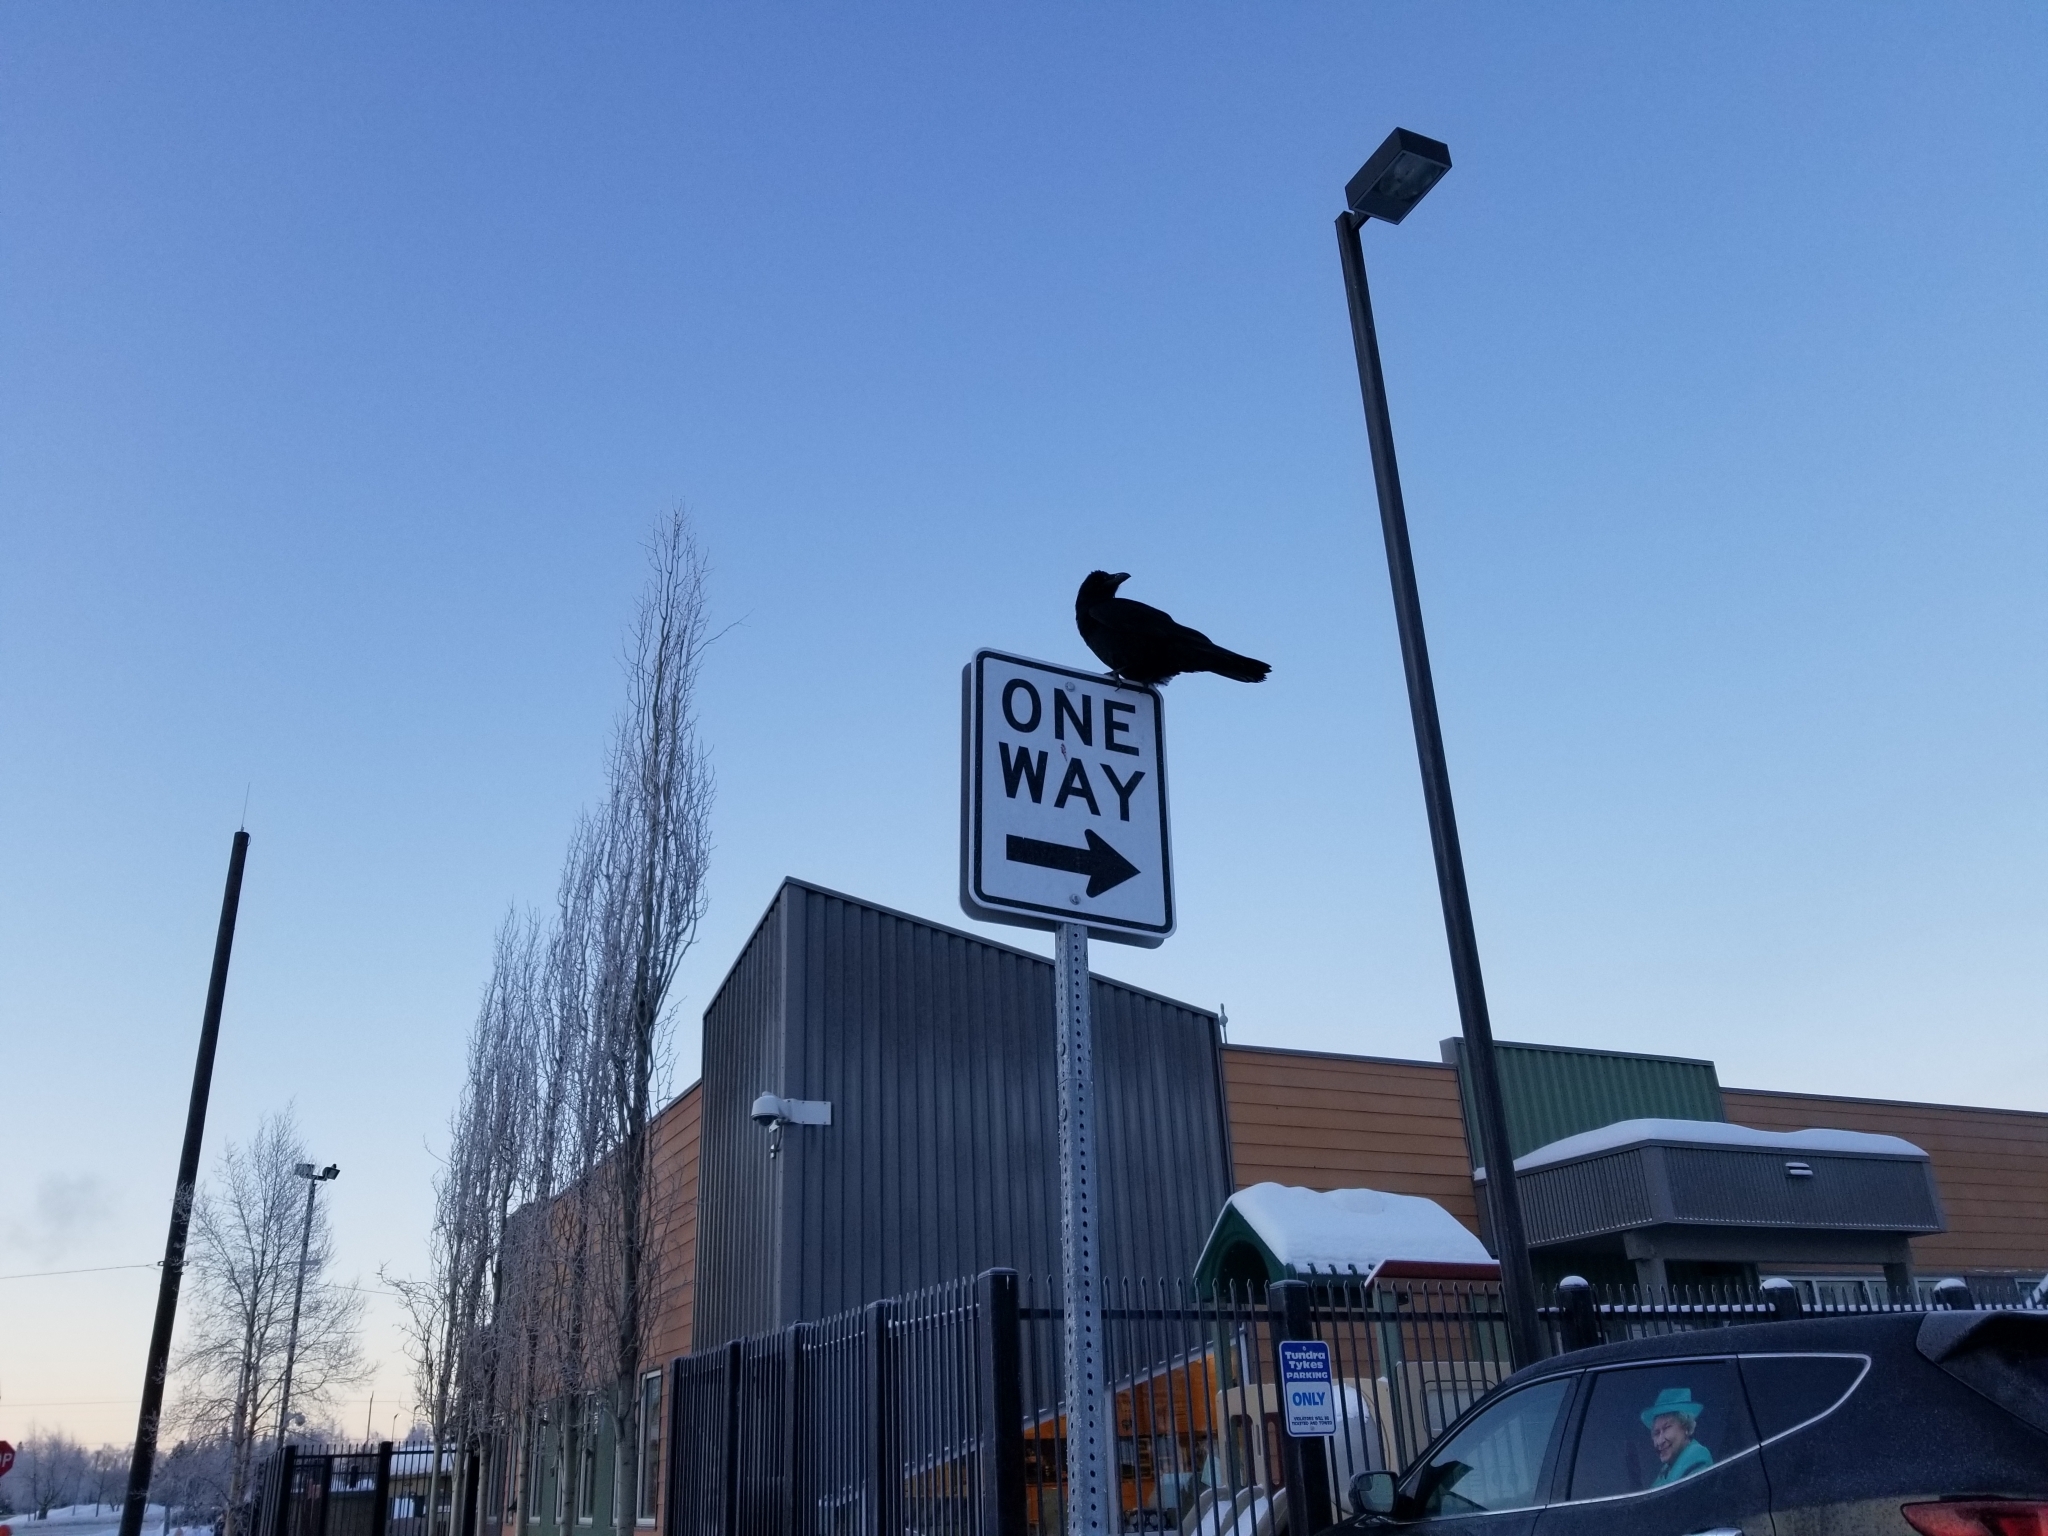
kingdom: Animalia
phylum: Chordata
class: Aves
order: Passeriformes
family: Corvidae
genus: Corvus
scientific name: Corvus corax
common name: Common raven
